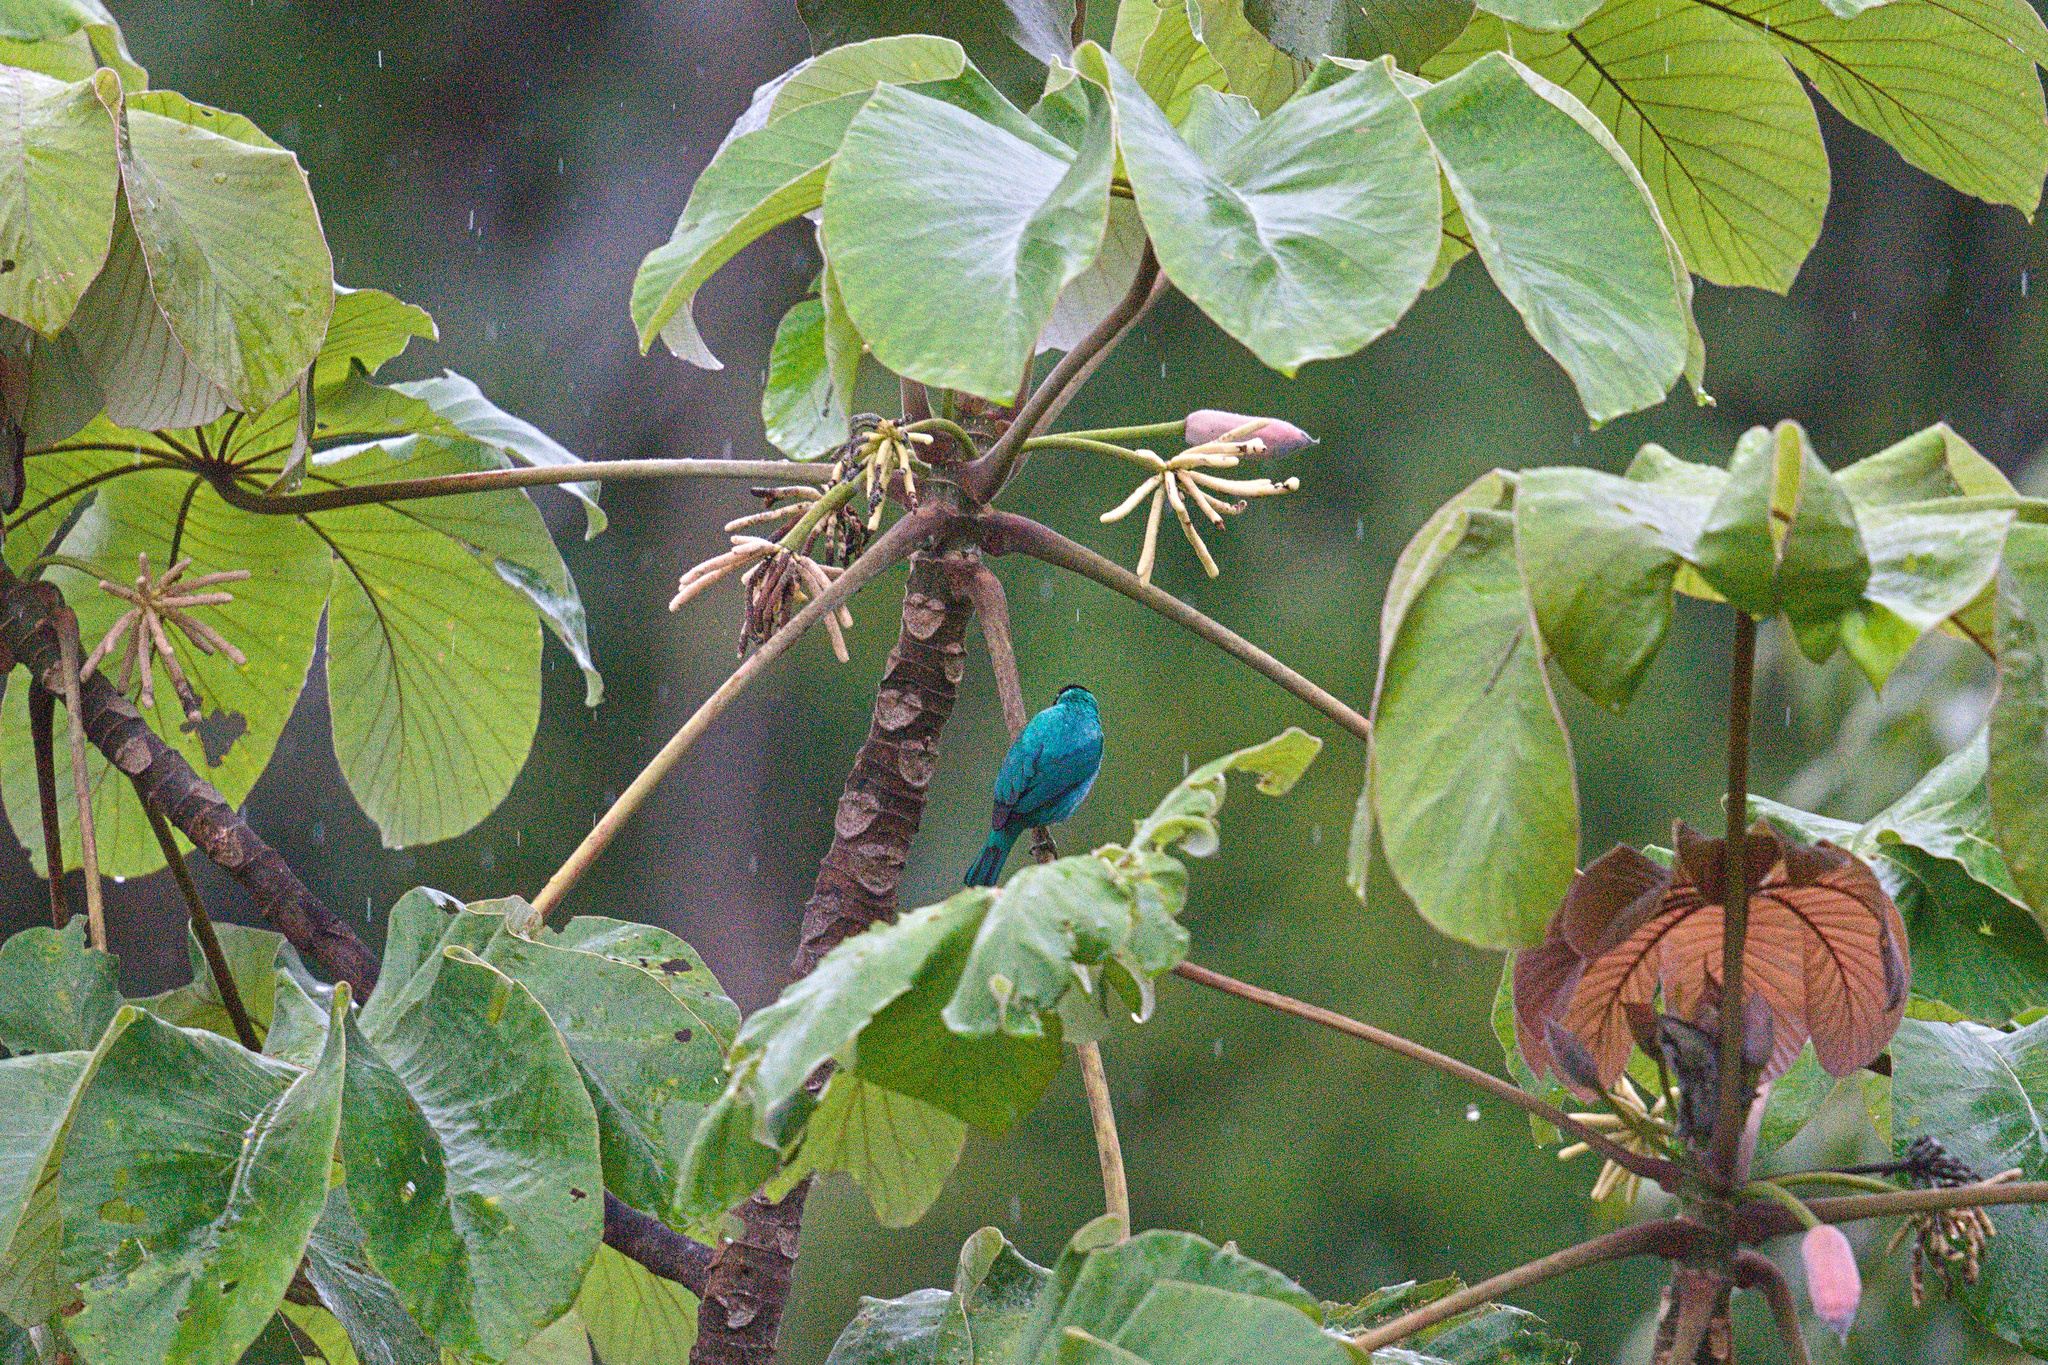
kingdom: Animalia
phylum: Chordata
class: Aves
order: Passeriformes
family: Thraupidae
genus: Chlorophanes
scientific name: Chlorophanes spiza
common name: Green honeycreeper
